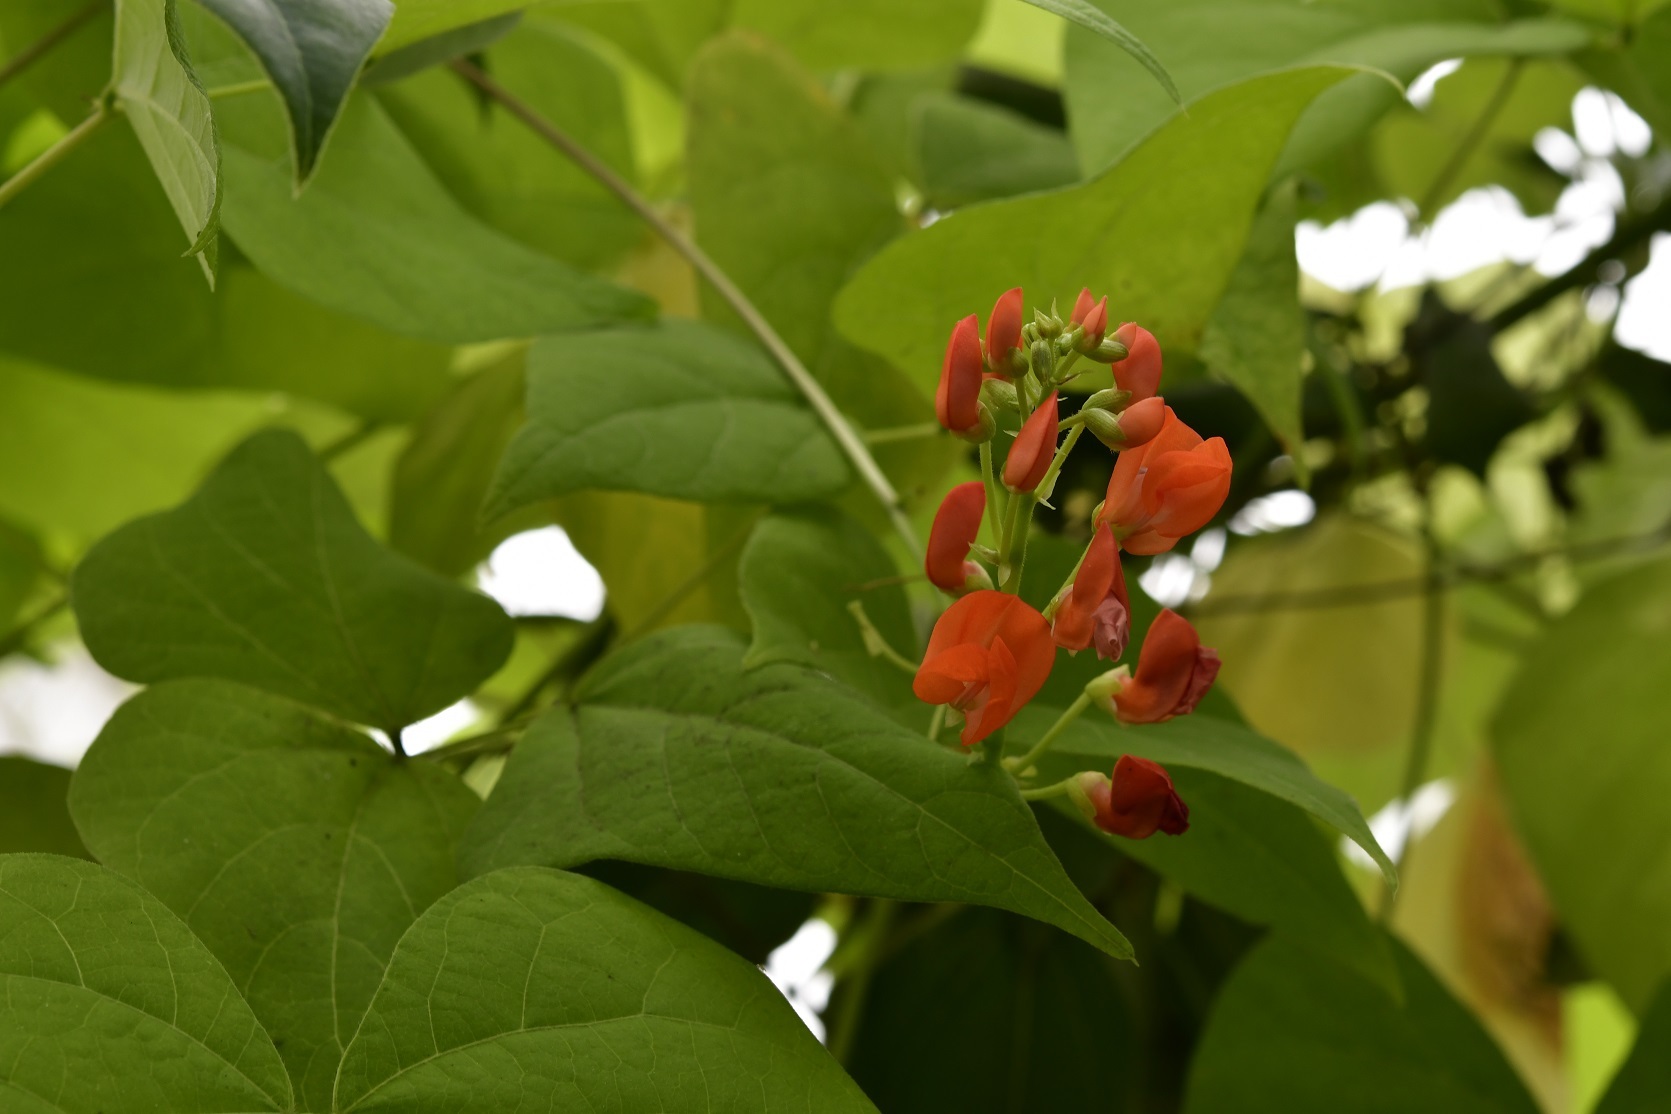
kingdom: Plantae
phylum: Tracheophyta
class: Magnoliopsida
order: Fabales
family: Fabaceae
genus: Phaseolus
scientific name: Phaseolus coccineus
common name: Runner bean
